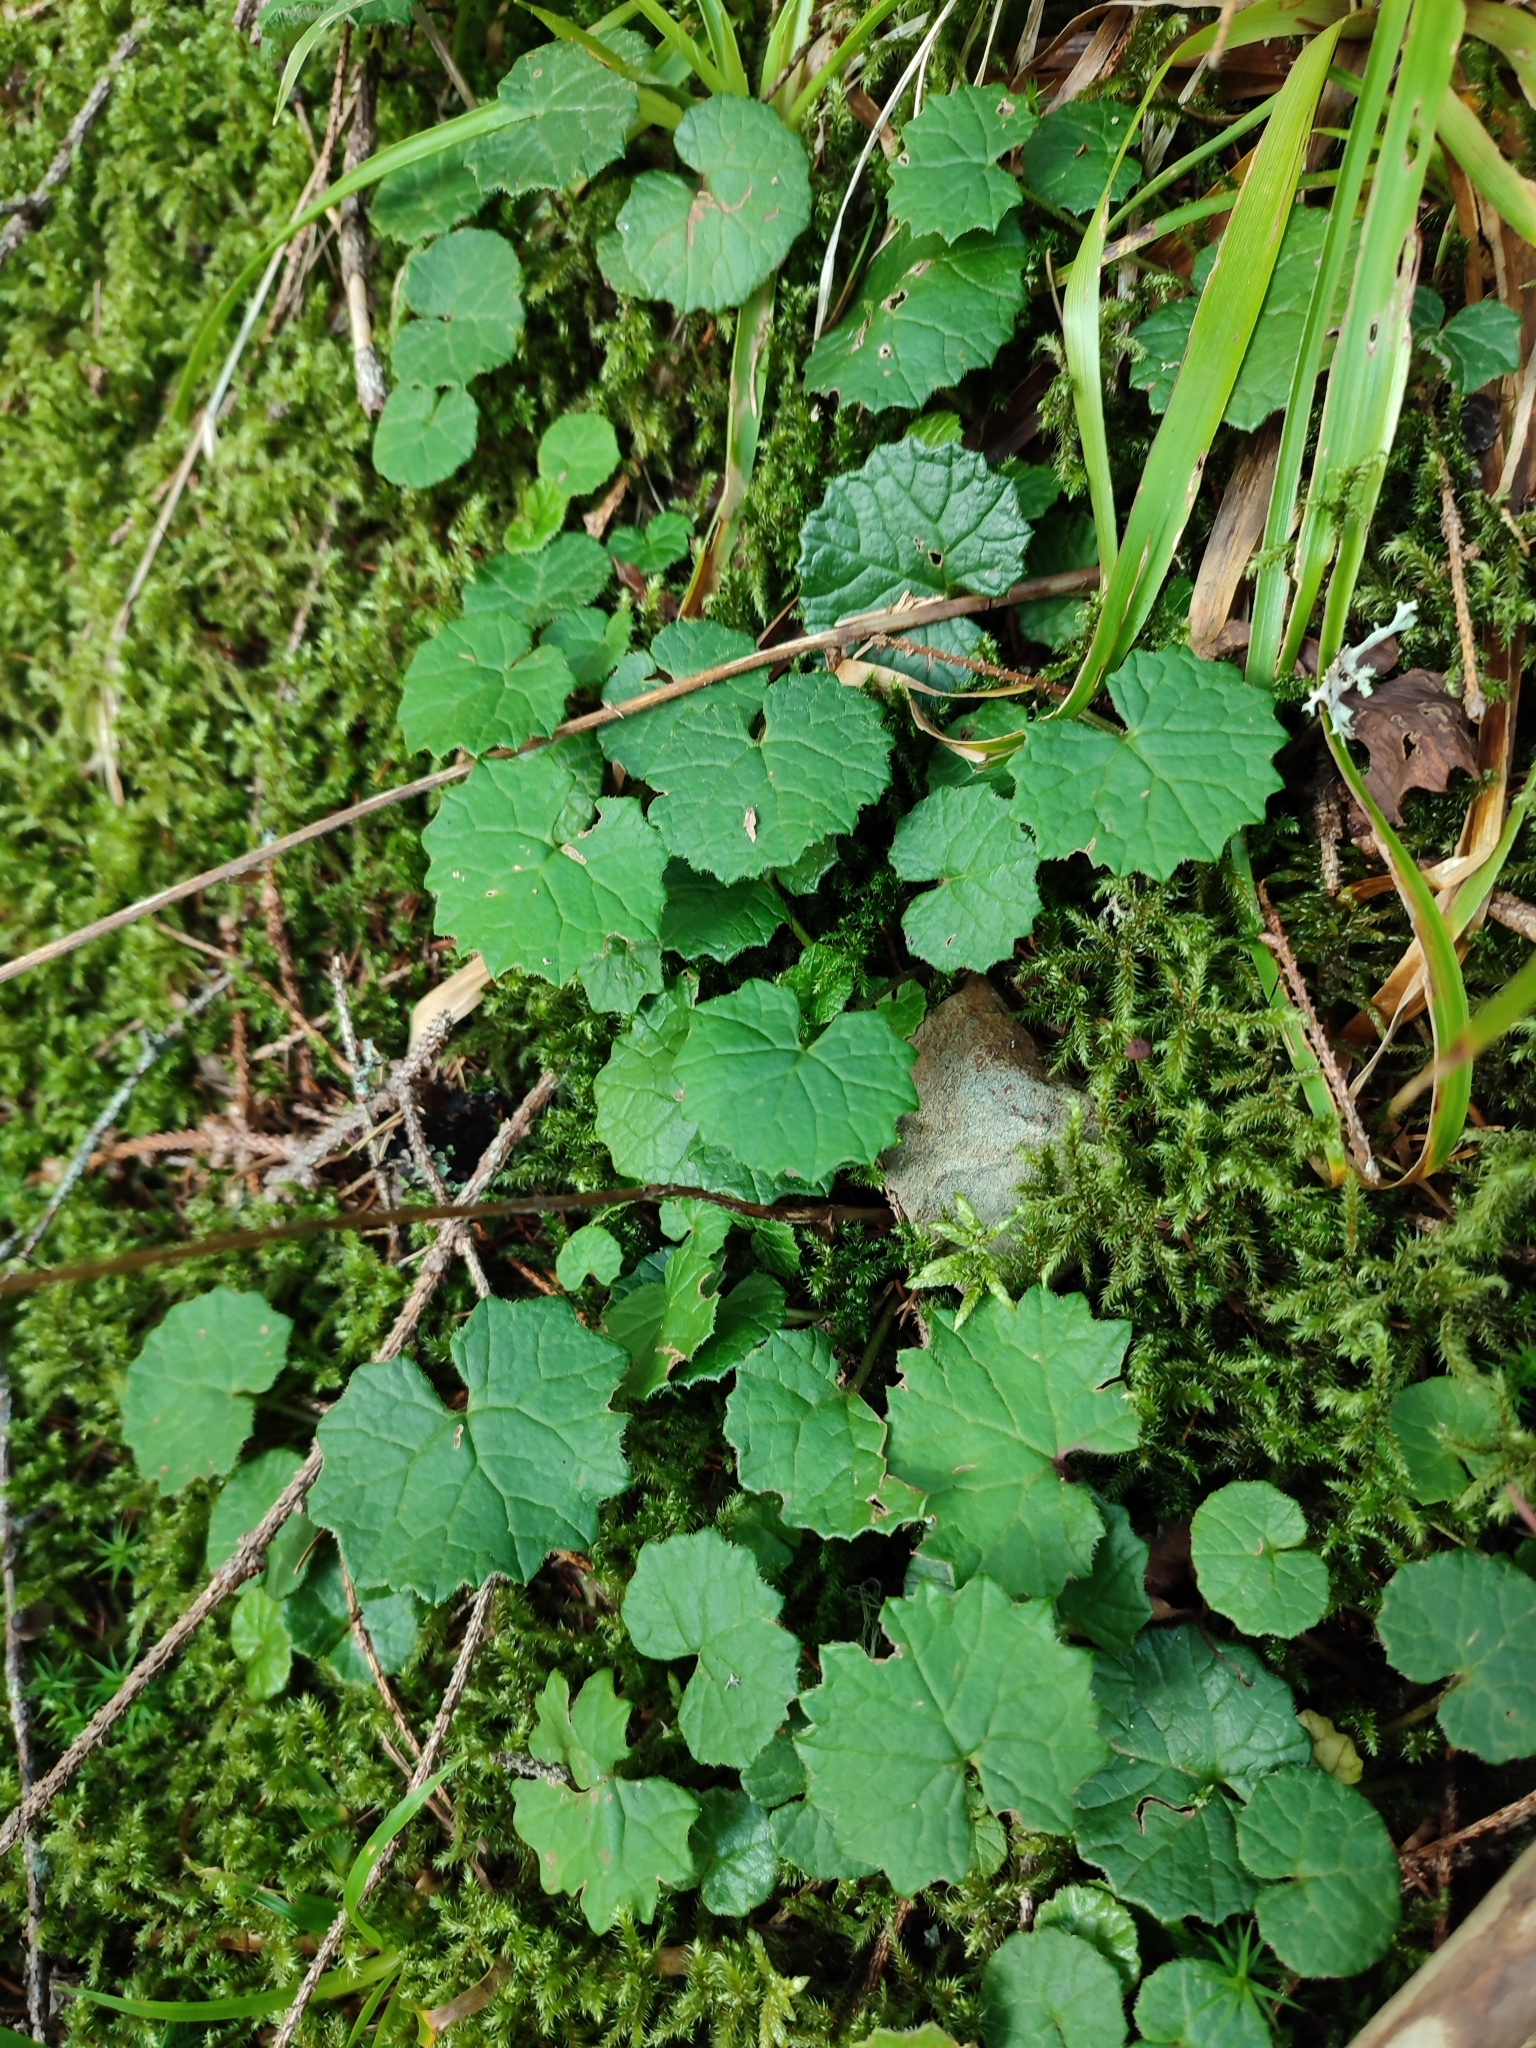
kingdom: Plantae
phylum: Tracheophyta
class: Magnoliopsida
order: Asterales
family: Asteraceae
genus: Homogyne
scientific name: Homogyne alpina
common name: Purple colt's-foot
